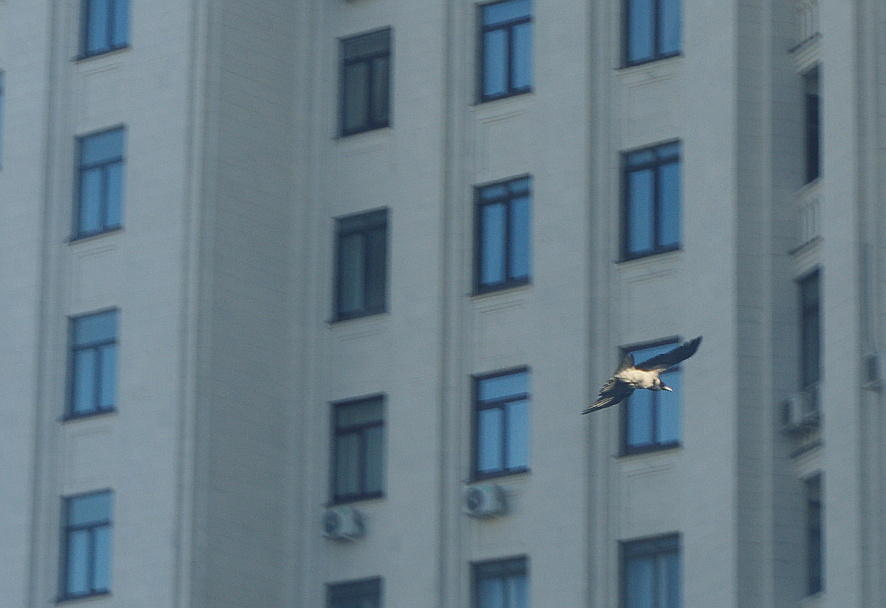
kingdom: Animalia
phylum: Chordata
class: Aves
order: Passeriformes
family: Corvidae
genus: Corvus
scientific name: Corvus cornix
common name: Hooded crow
